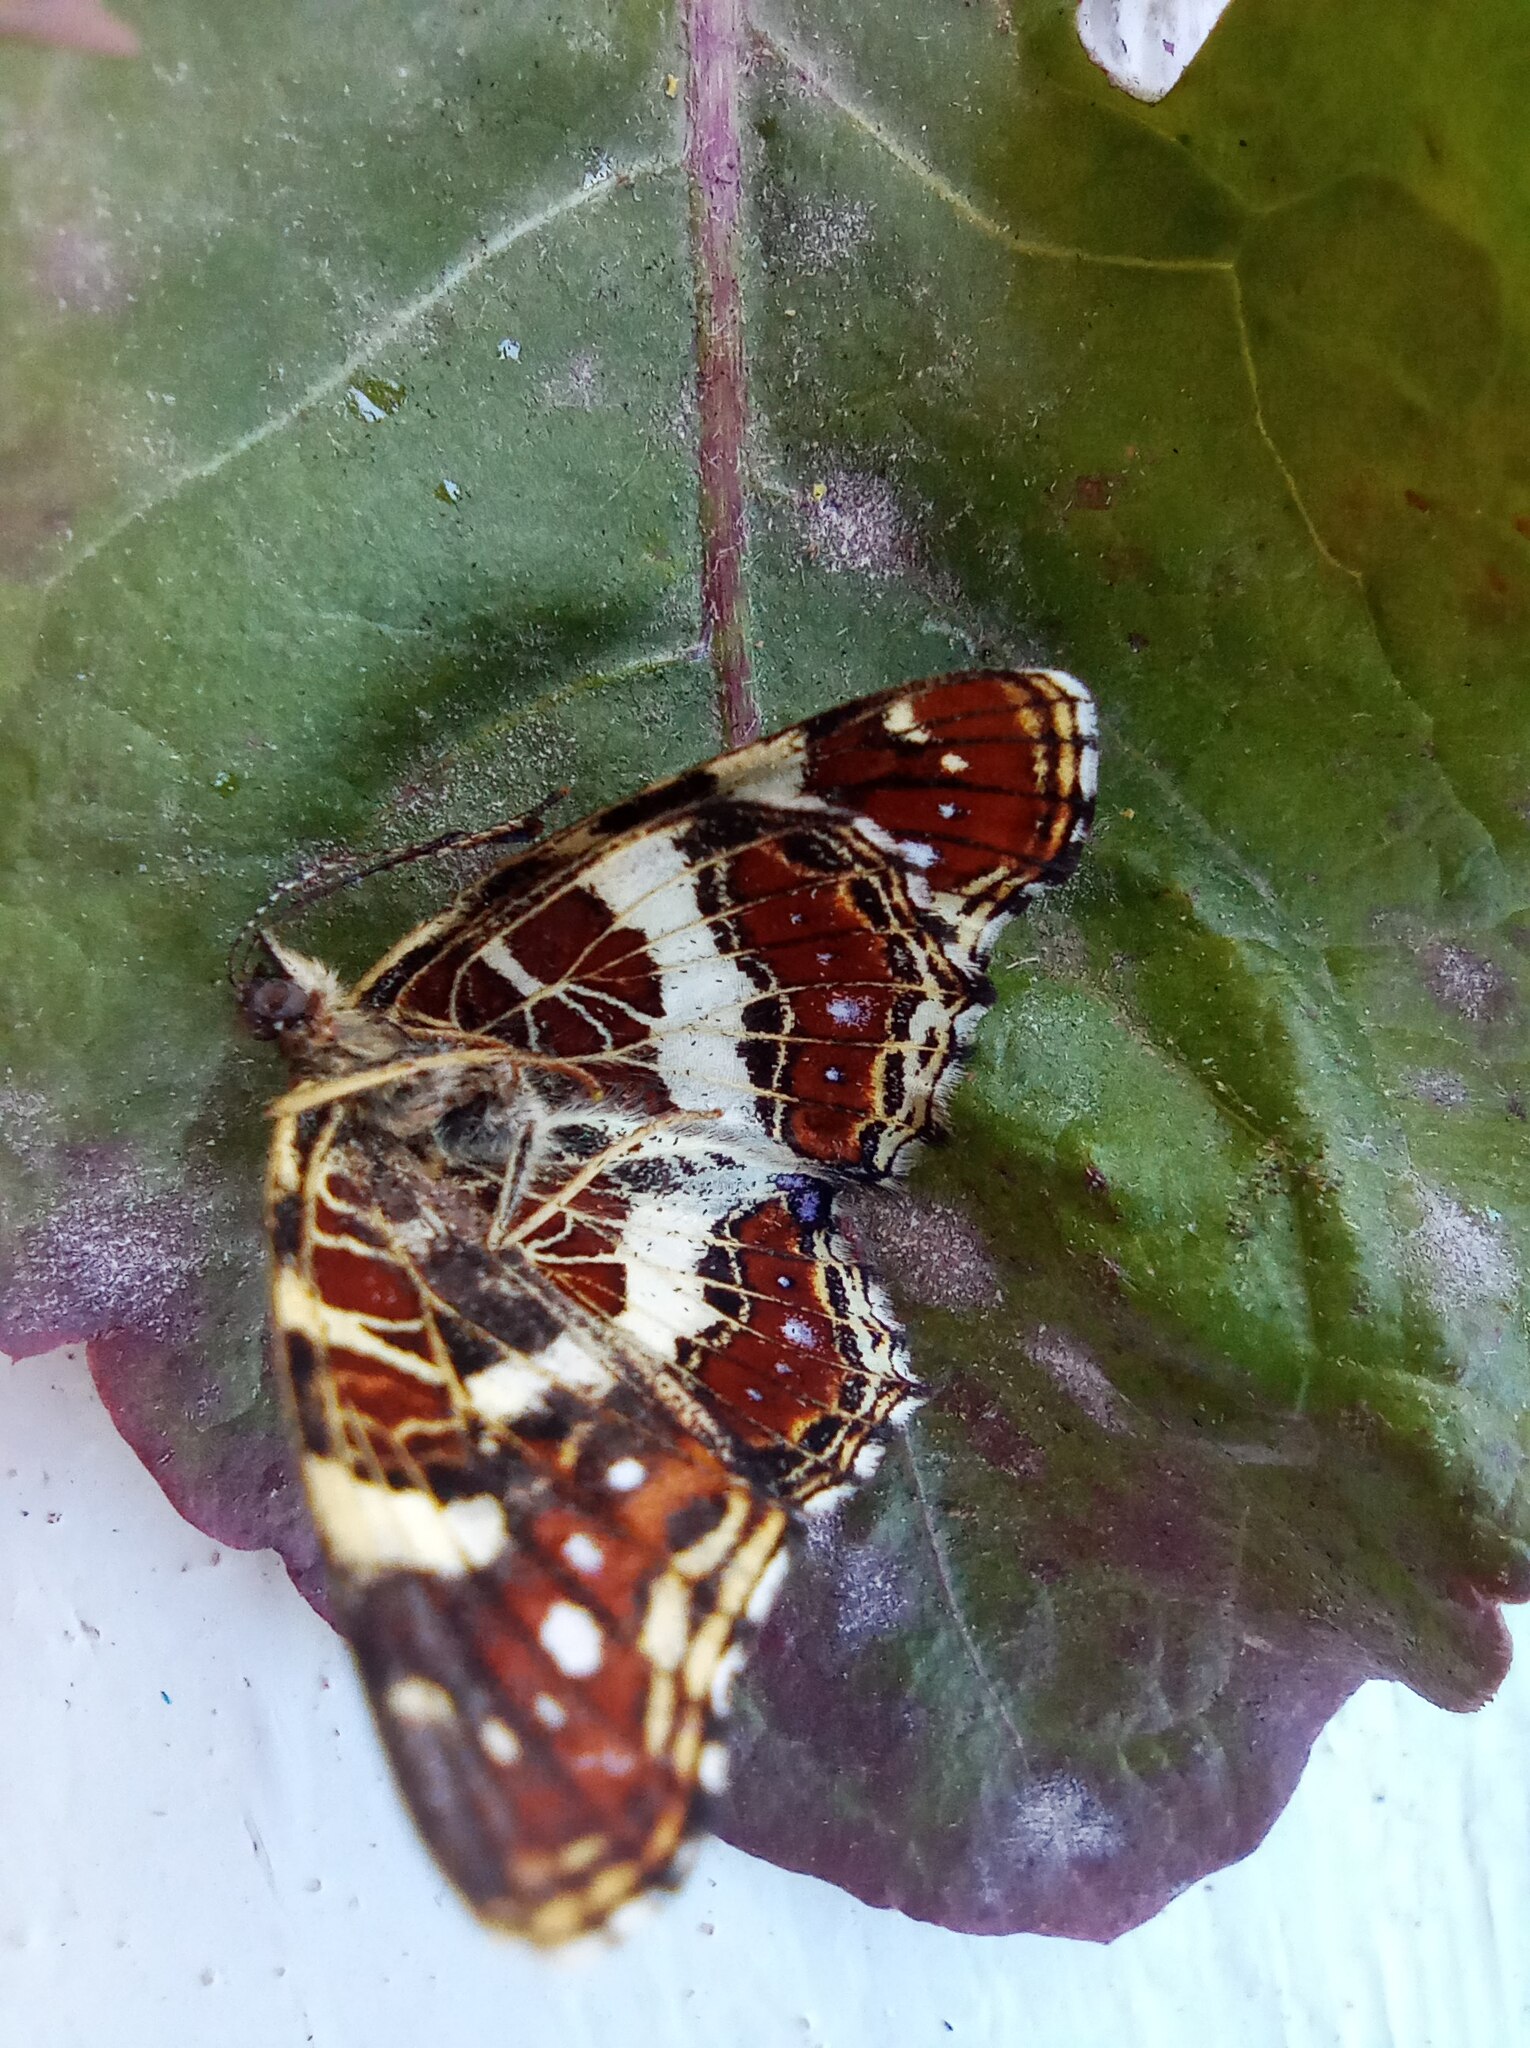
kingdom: Animalia
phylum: Arthropoda
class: Insecta
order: Lepidoptera
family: Nymphalidae
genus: Araschnia
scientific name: Araschnia levana
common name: Map butterfly
